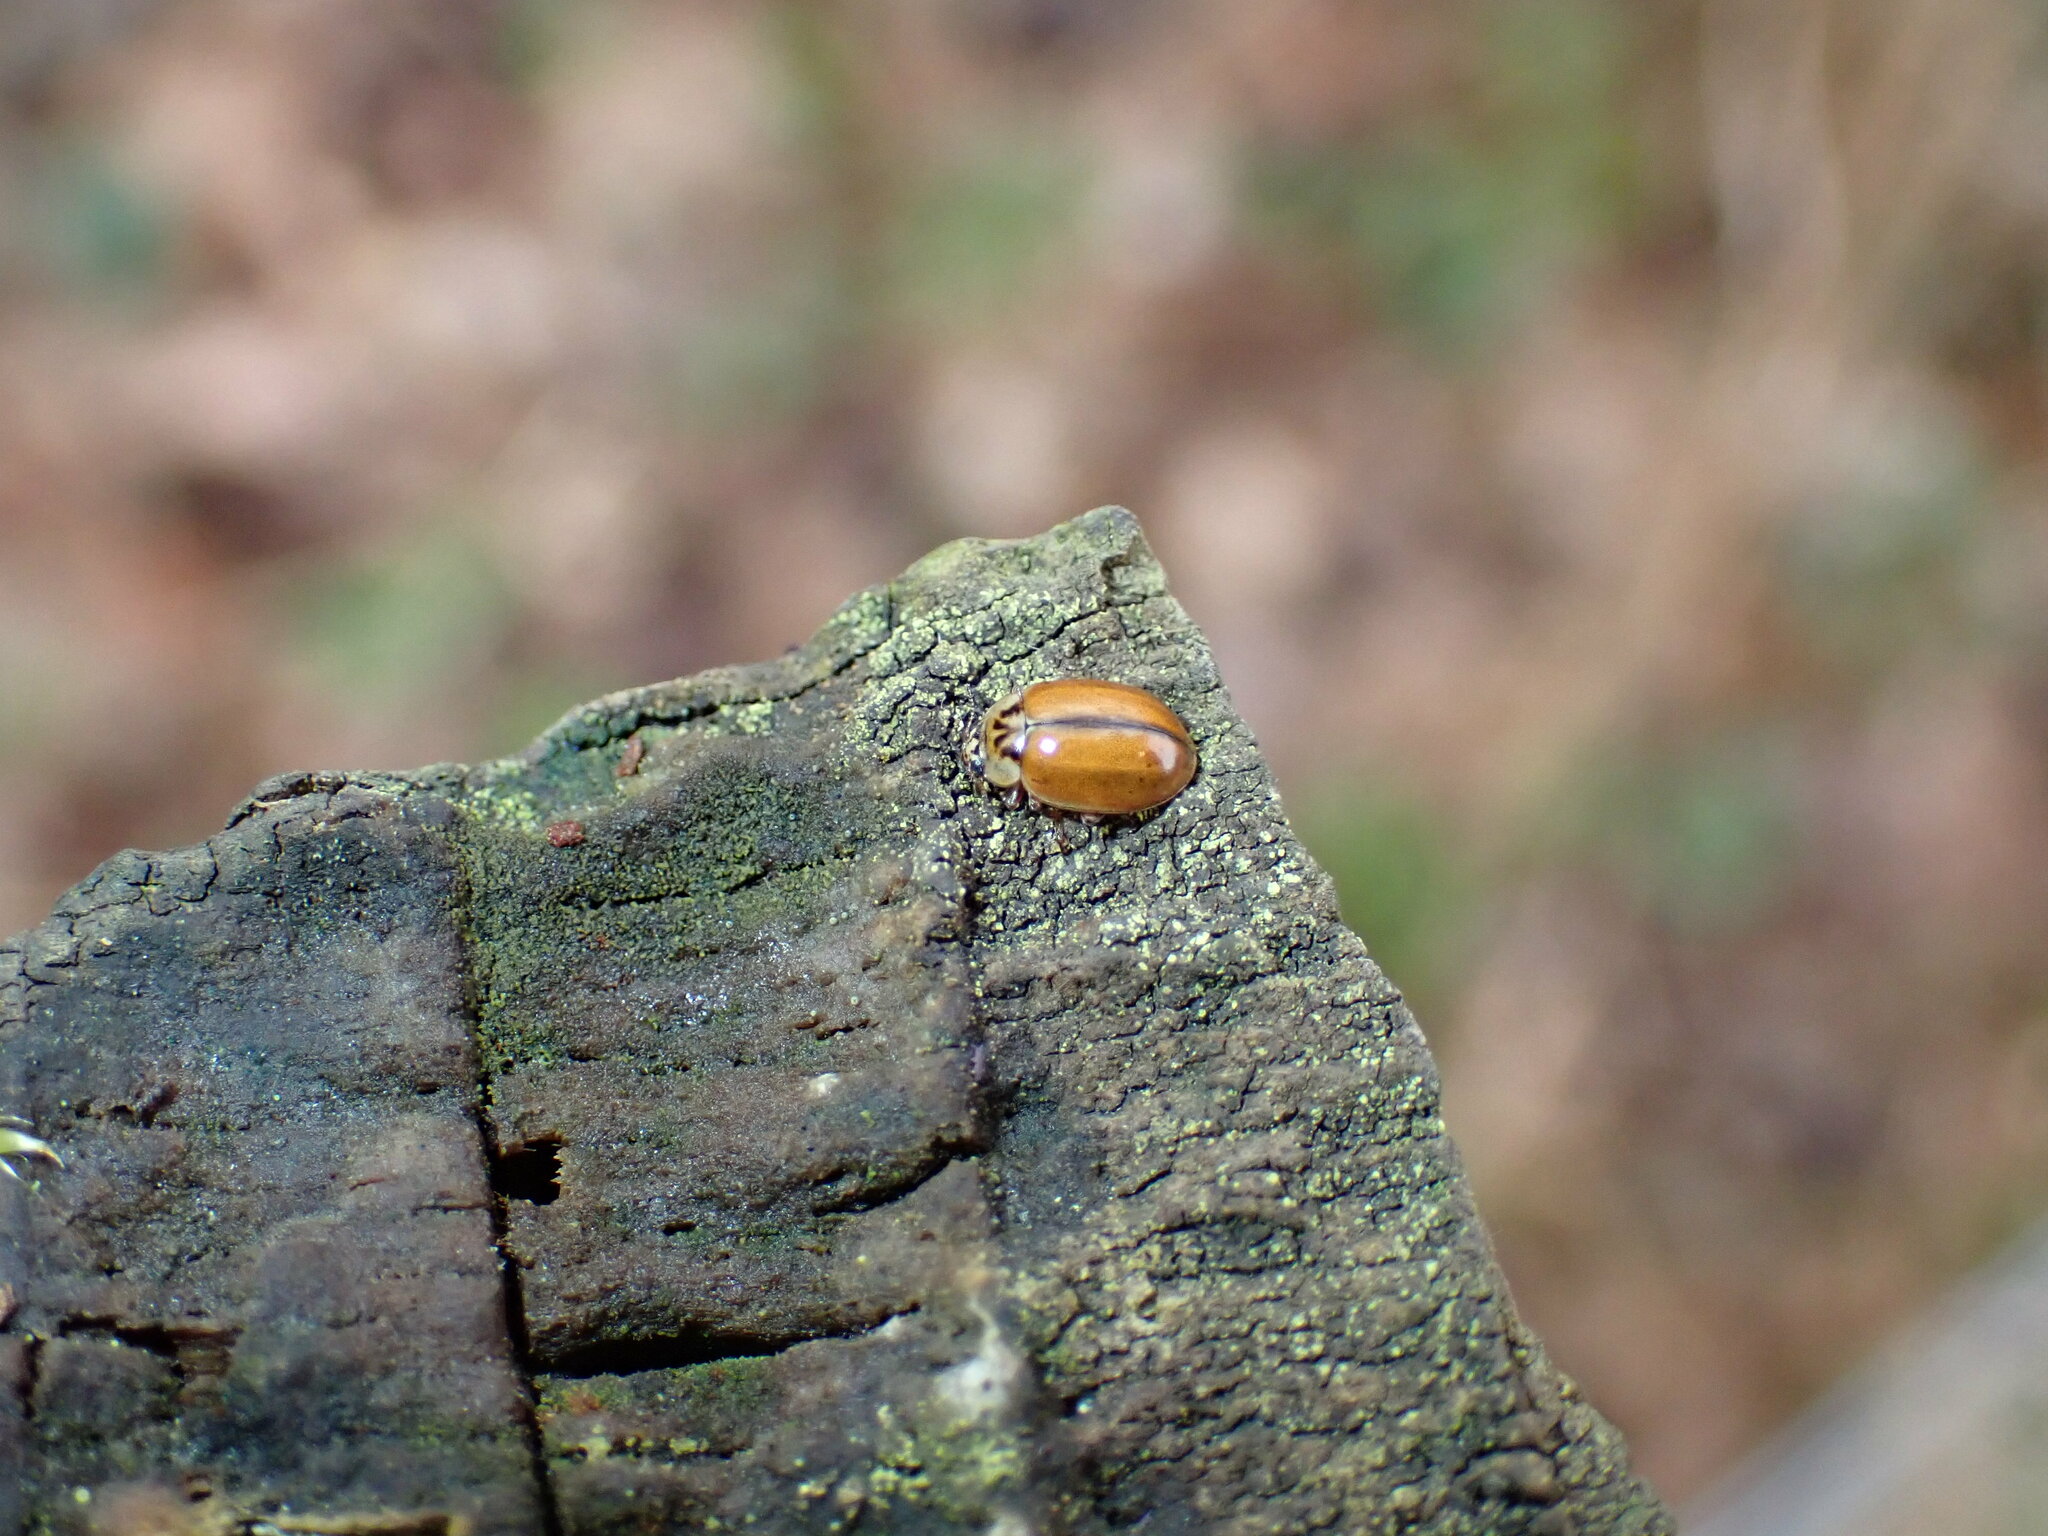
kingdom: Animalia
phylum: Arthropoda
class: Insecta
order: Coleoptera
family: Coccinellidae
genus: Aphidecta
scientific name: Aphidecta obliterata
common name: Larch ladybird
